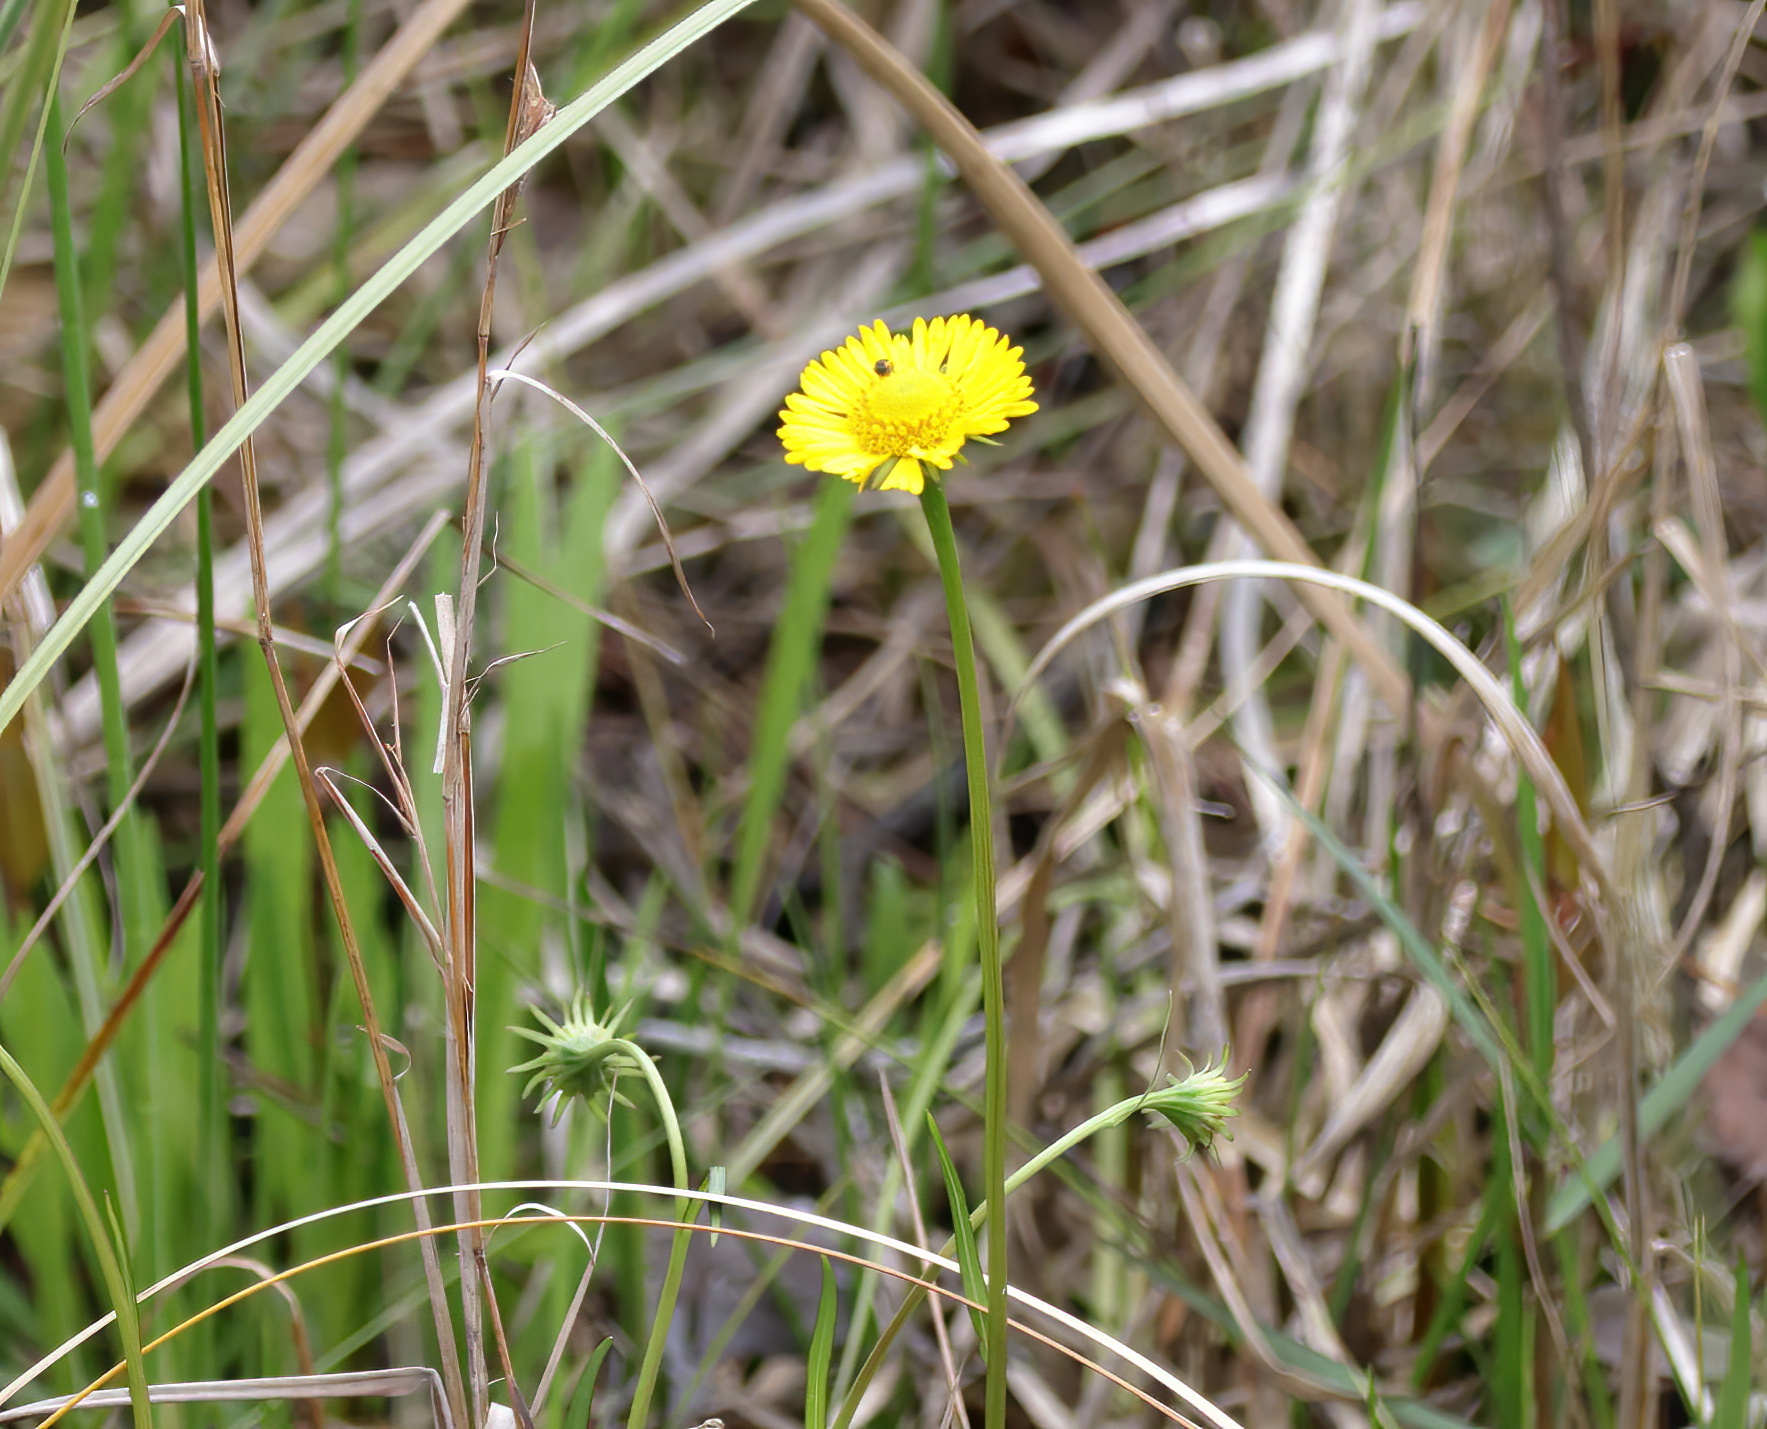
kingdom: Plantae
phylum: Tracheophyta
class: Magnoliopsida
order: Asterales
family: Asteraceae
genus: Helenium
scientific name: Helenium vernale
